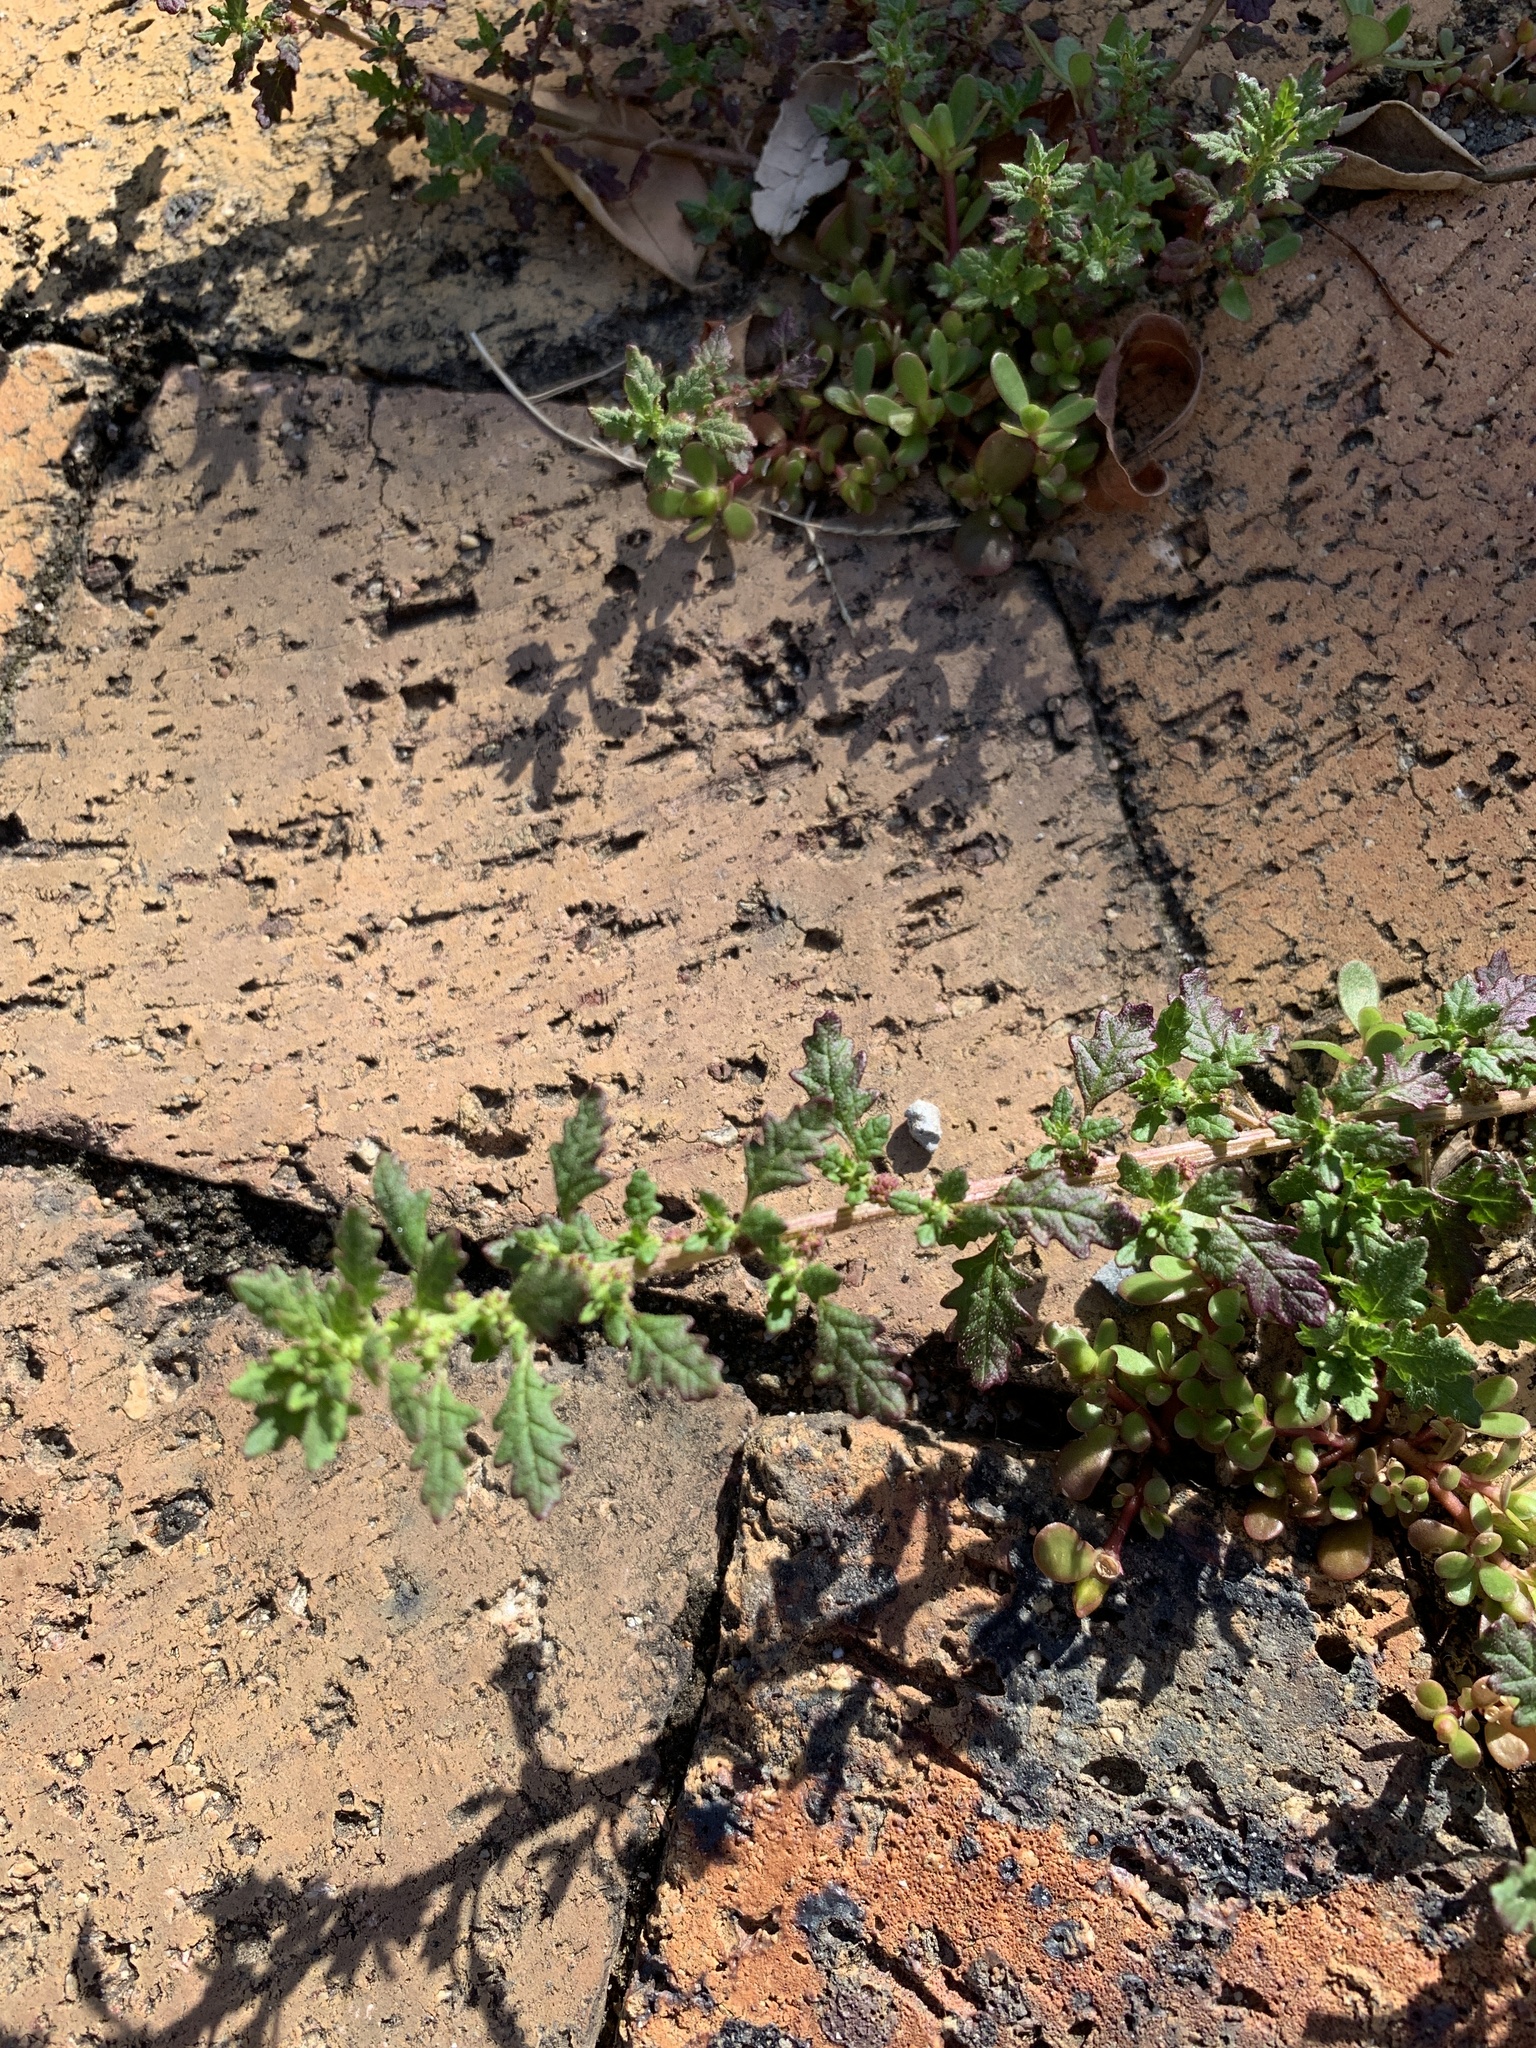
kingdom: Plantae
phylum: Tracheophyta
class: Magnoliopsida
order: Caryophyllales
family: Amaranthaceae
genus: Dysphania
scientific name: Dysphania pumilio
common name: Clammy goosefoot
